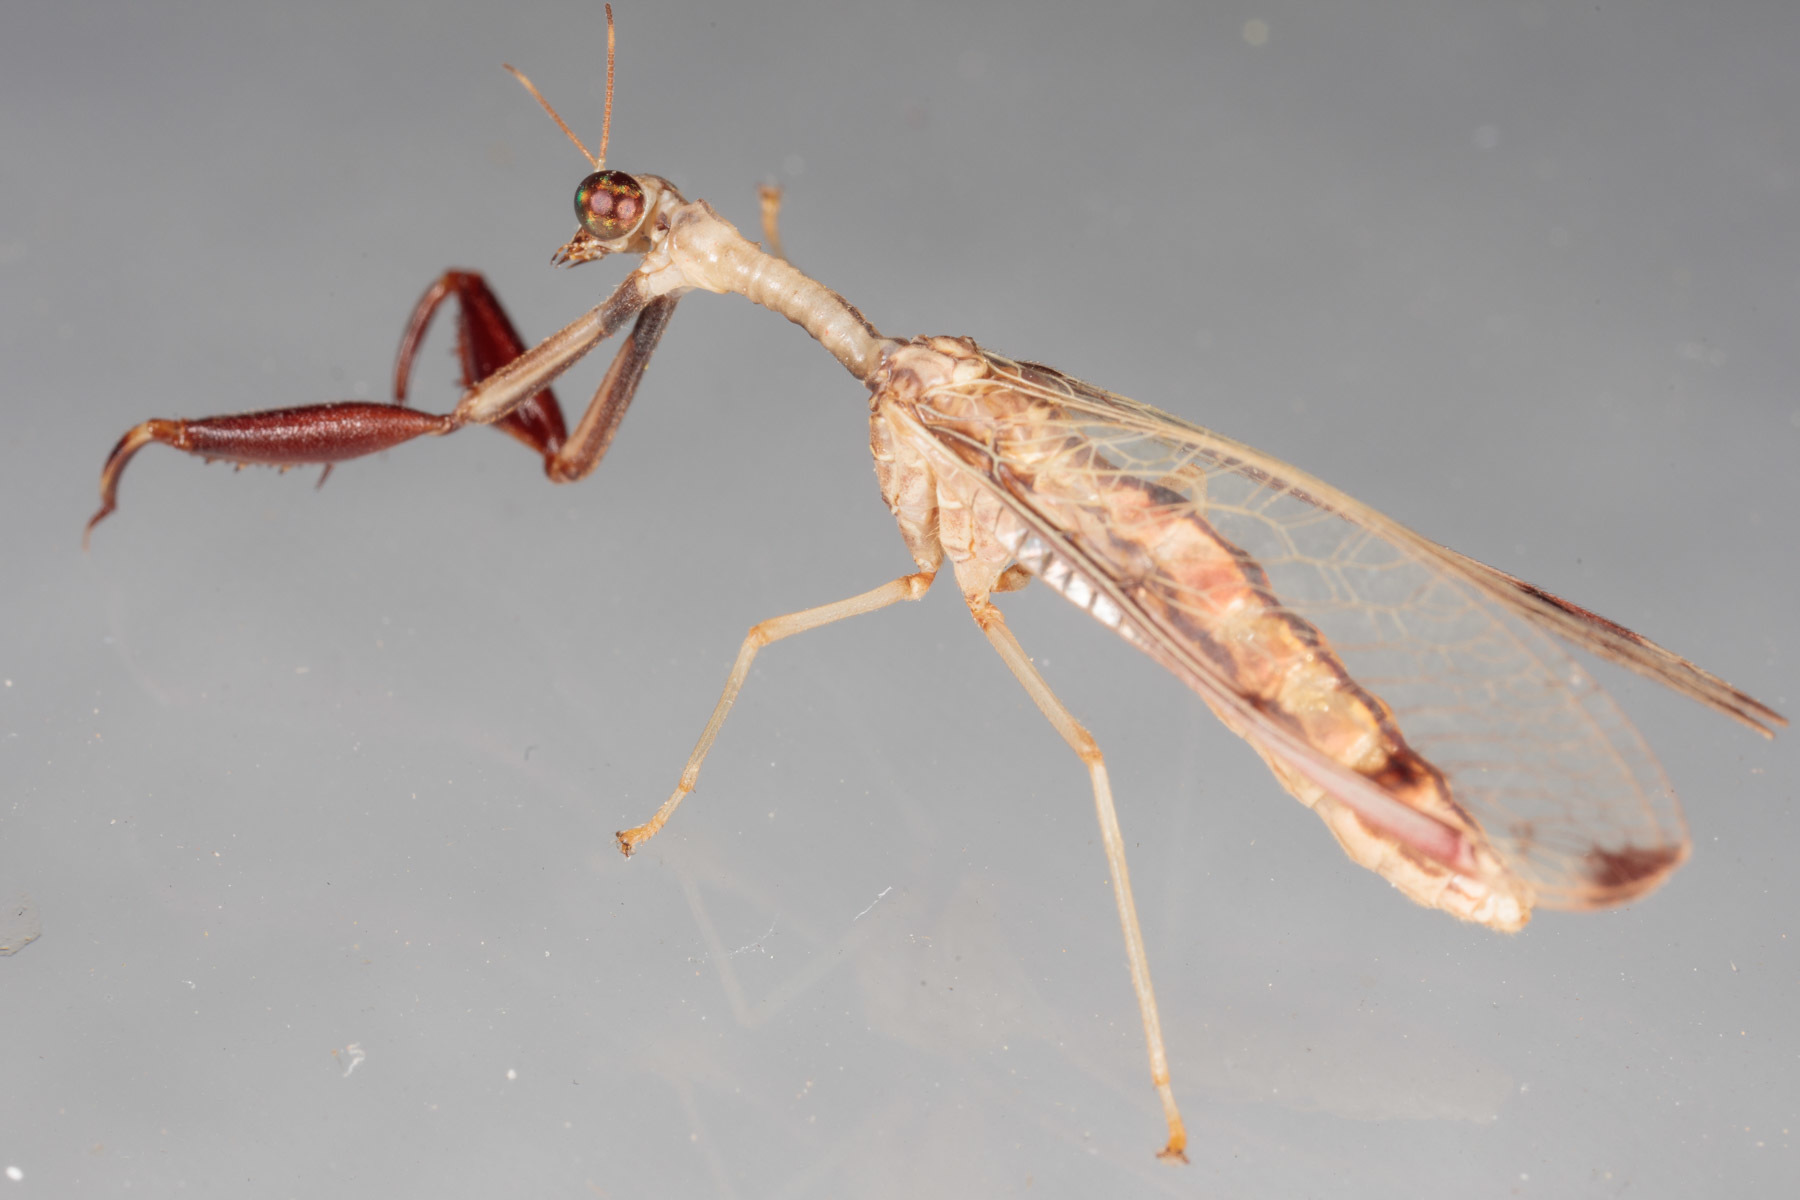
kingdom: Animalia
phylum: Arthropoda
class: Insecta
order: Neuroptera
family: Mantispidae
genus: Dicromantispa
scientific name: Dicromantispa interrupta
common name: Four-spotted mantidfly
